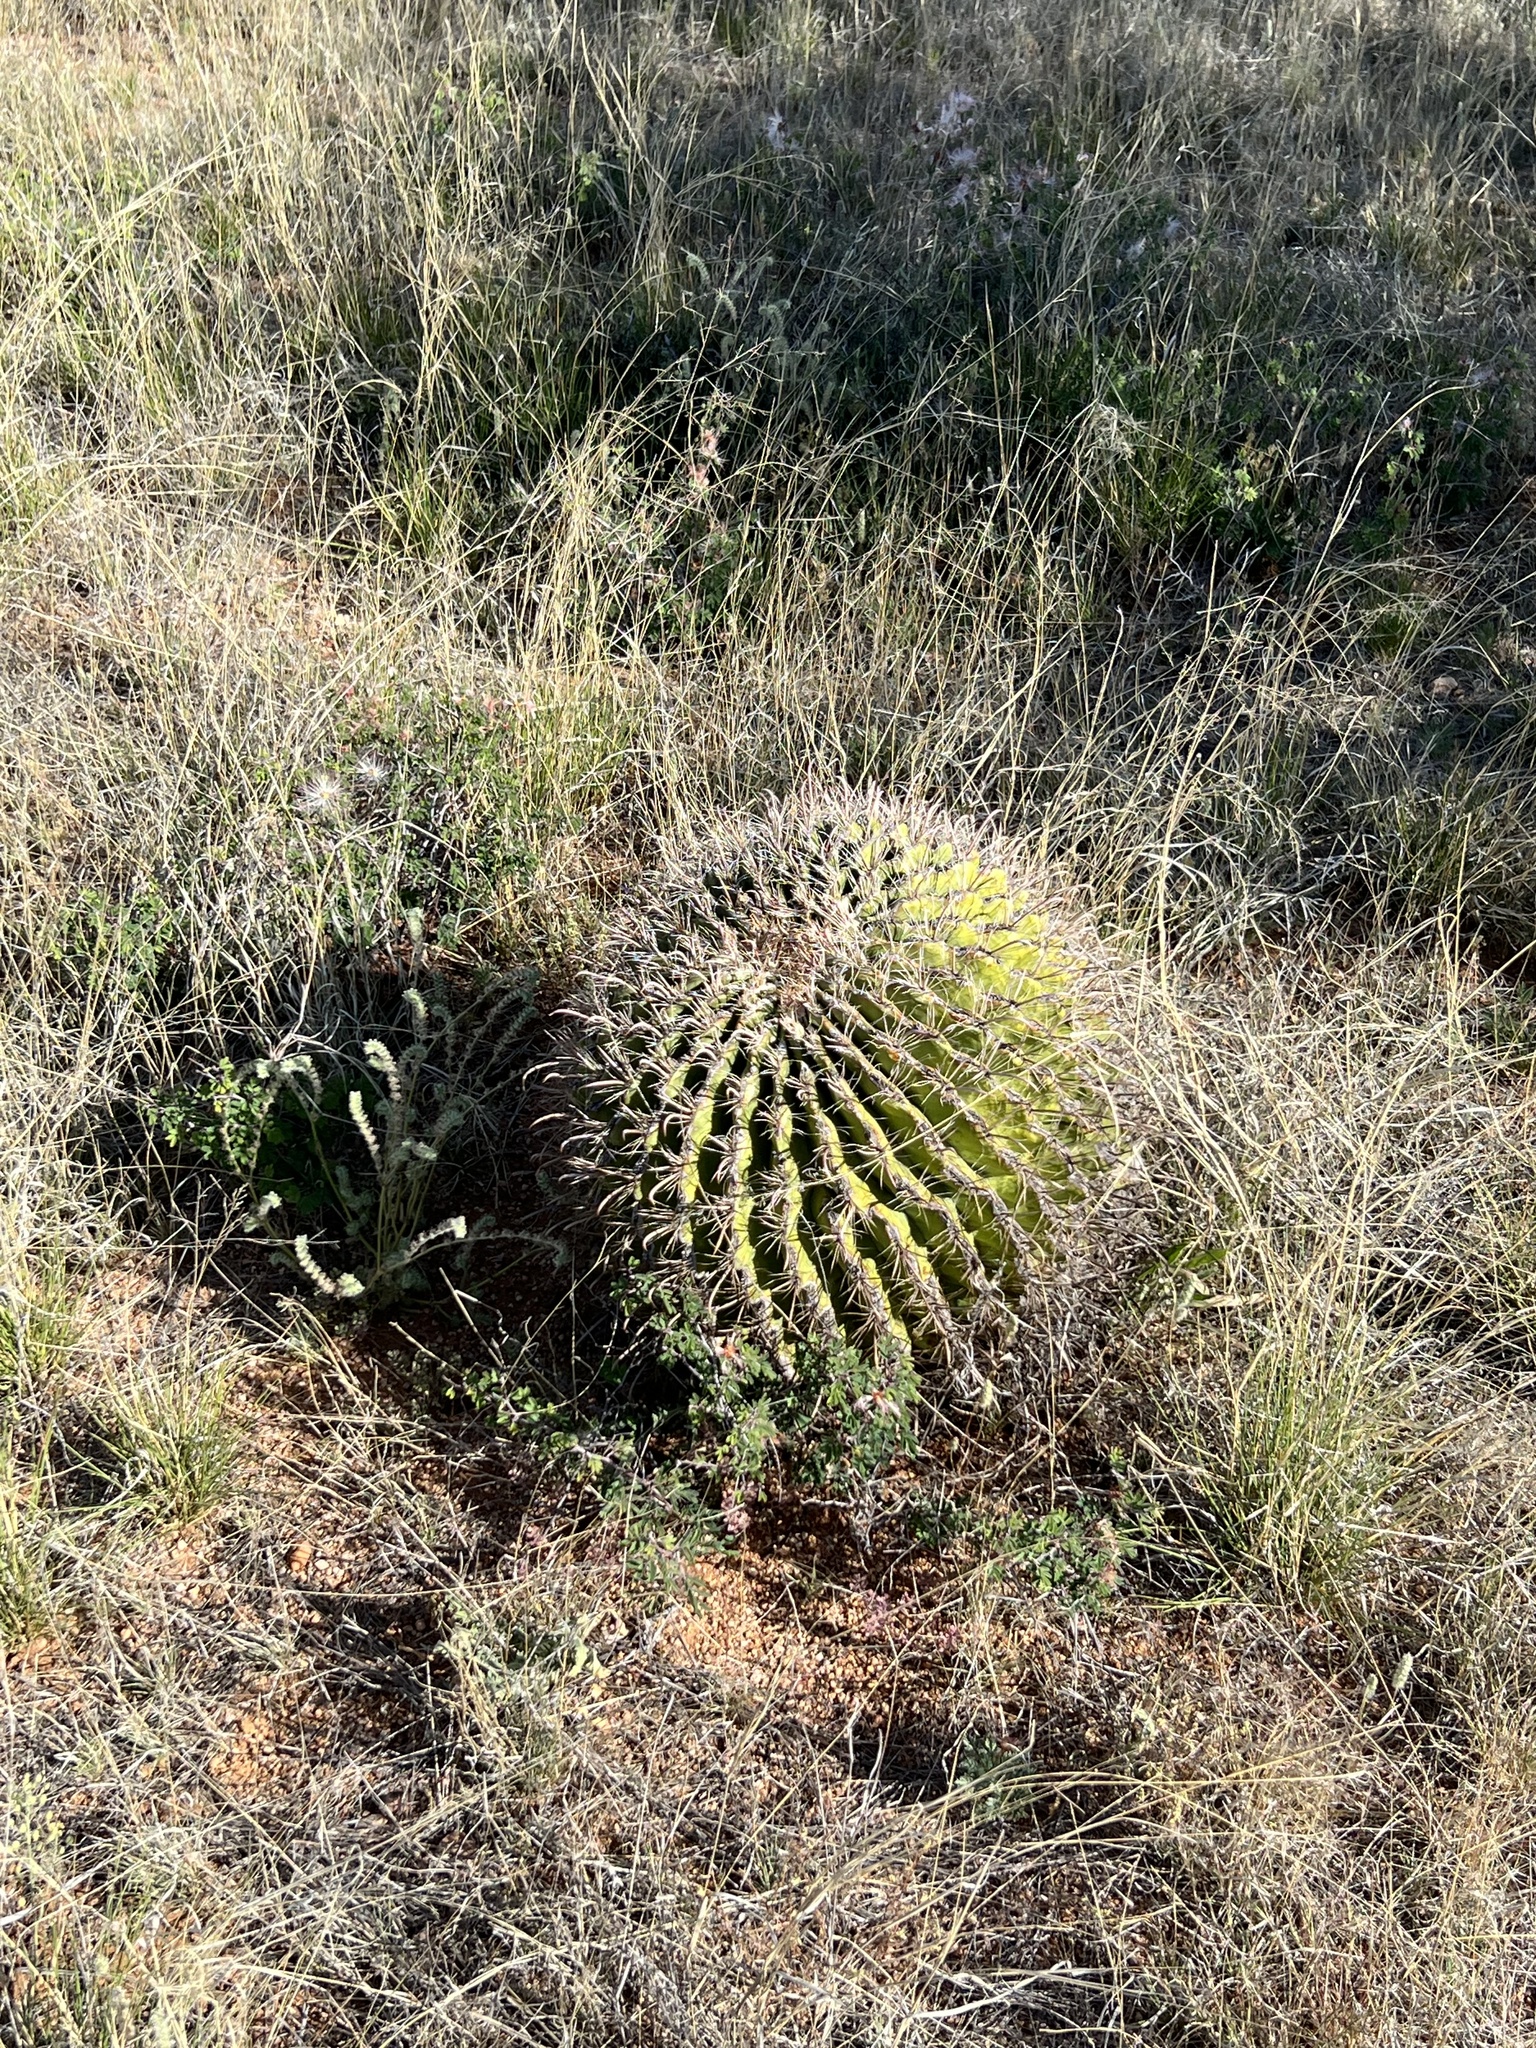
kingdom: Plantae
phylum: Tracheophyta
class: Magnoliopsida
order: Caryophyllales
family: Cactaceae
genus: Ferocactus
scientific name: Ferocactus wislizeni
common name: Candy barrel cactus
